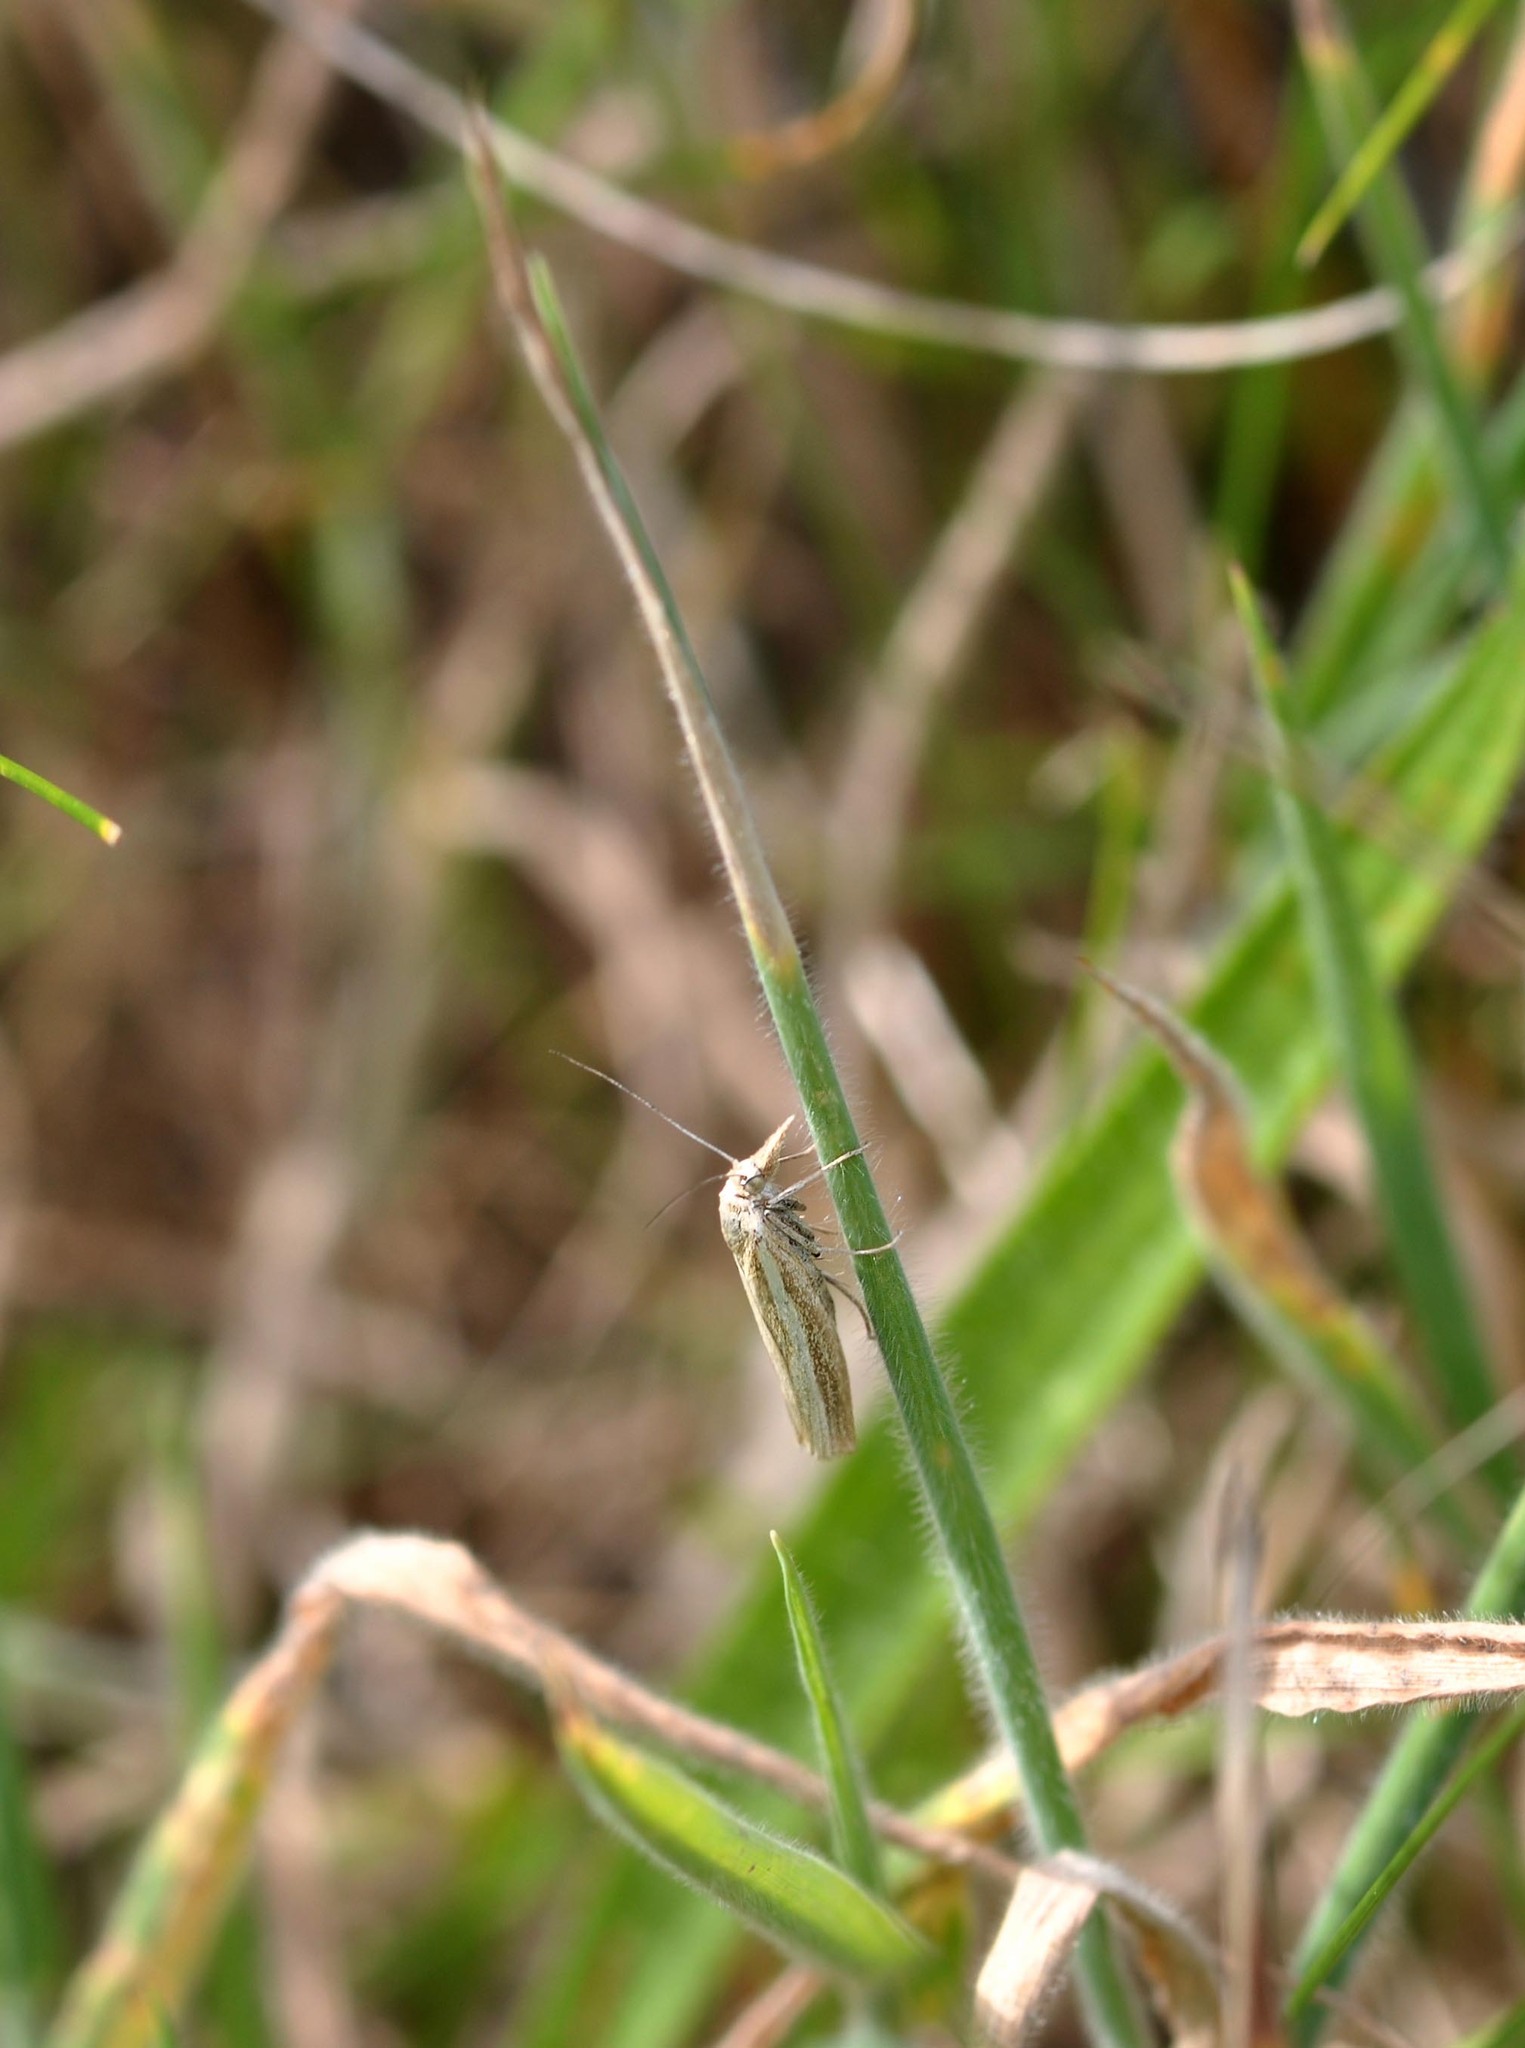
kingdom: Animalia
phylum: Arthropoda
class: Insecta
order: Lepidoptera
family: Crambidae
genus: Agriphila
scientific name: Agriphila tristellus
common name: Common grass-veneer
